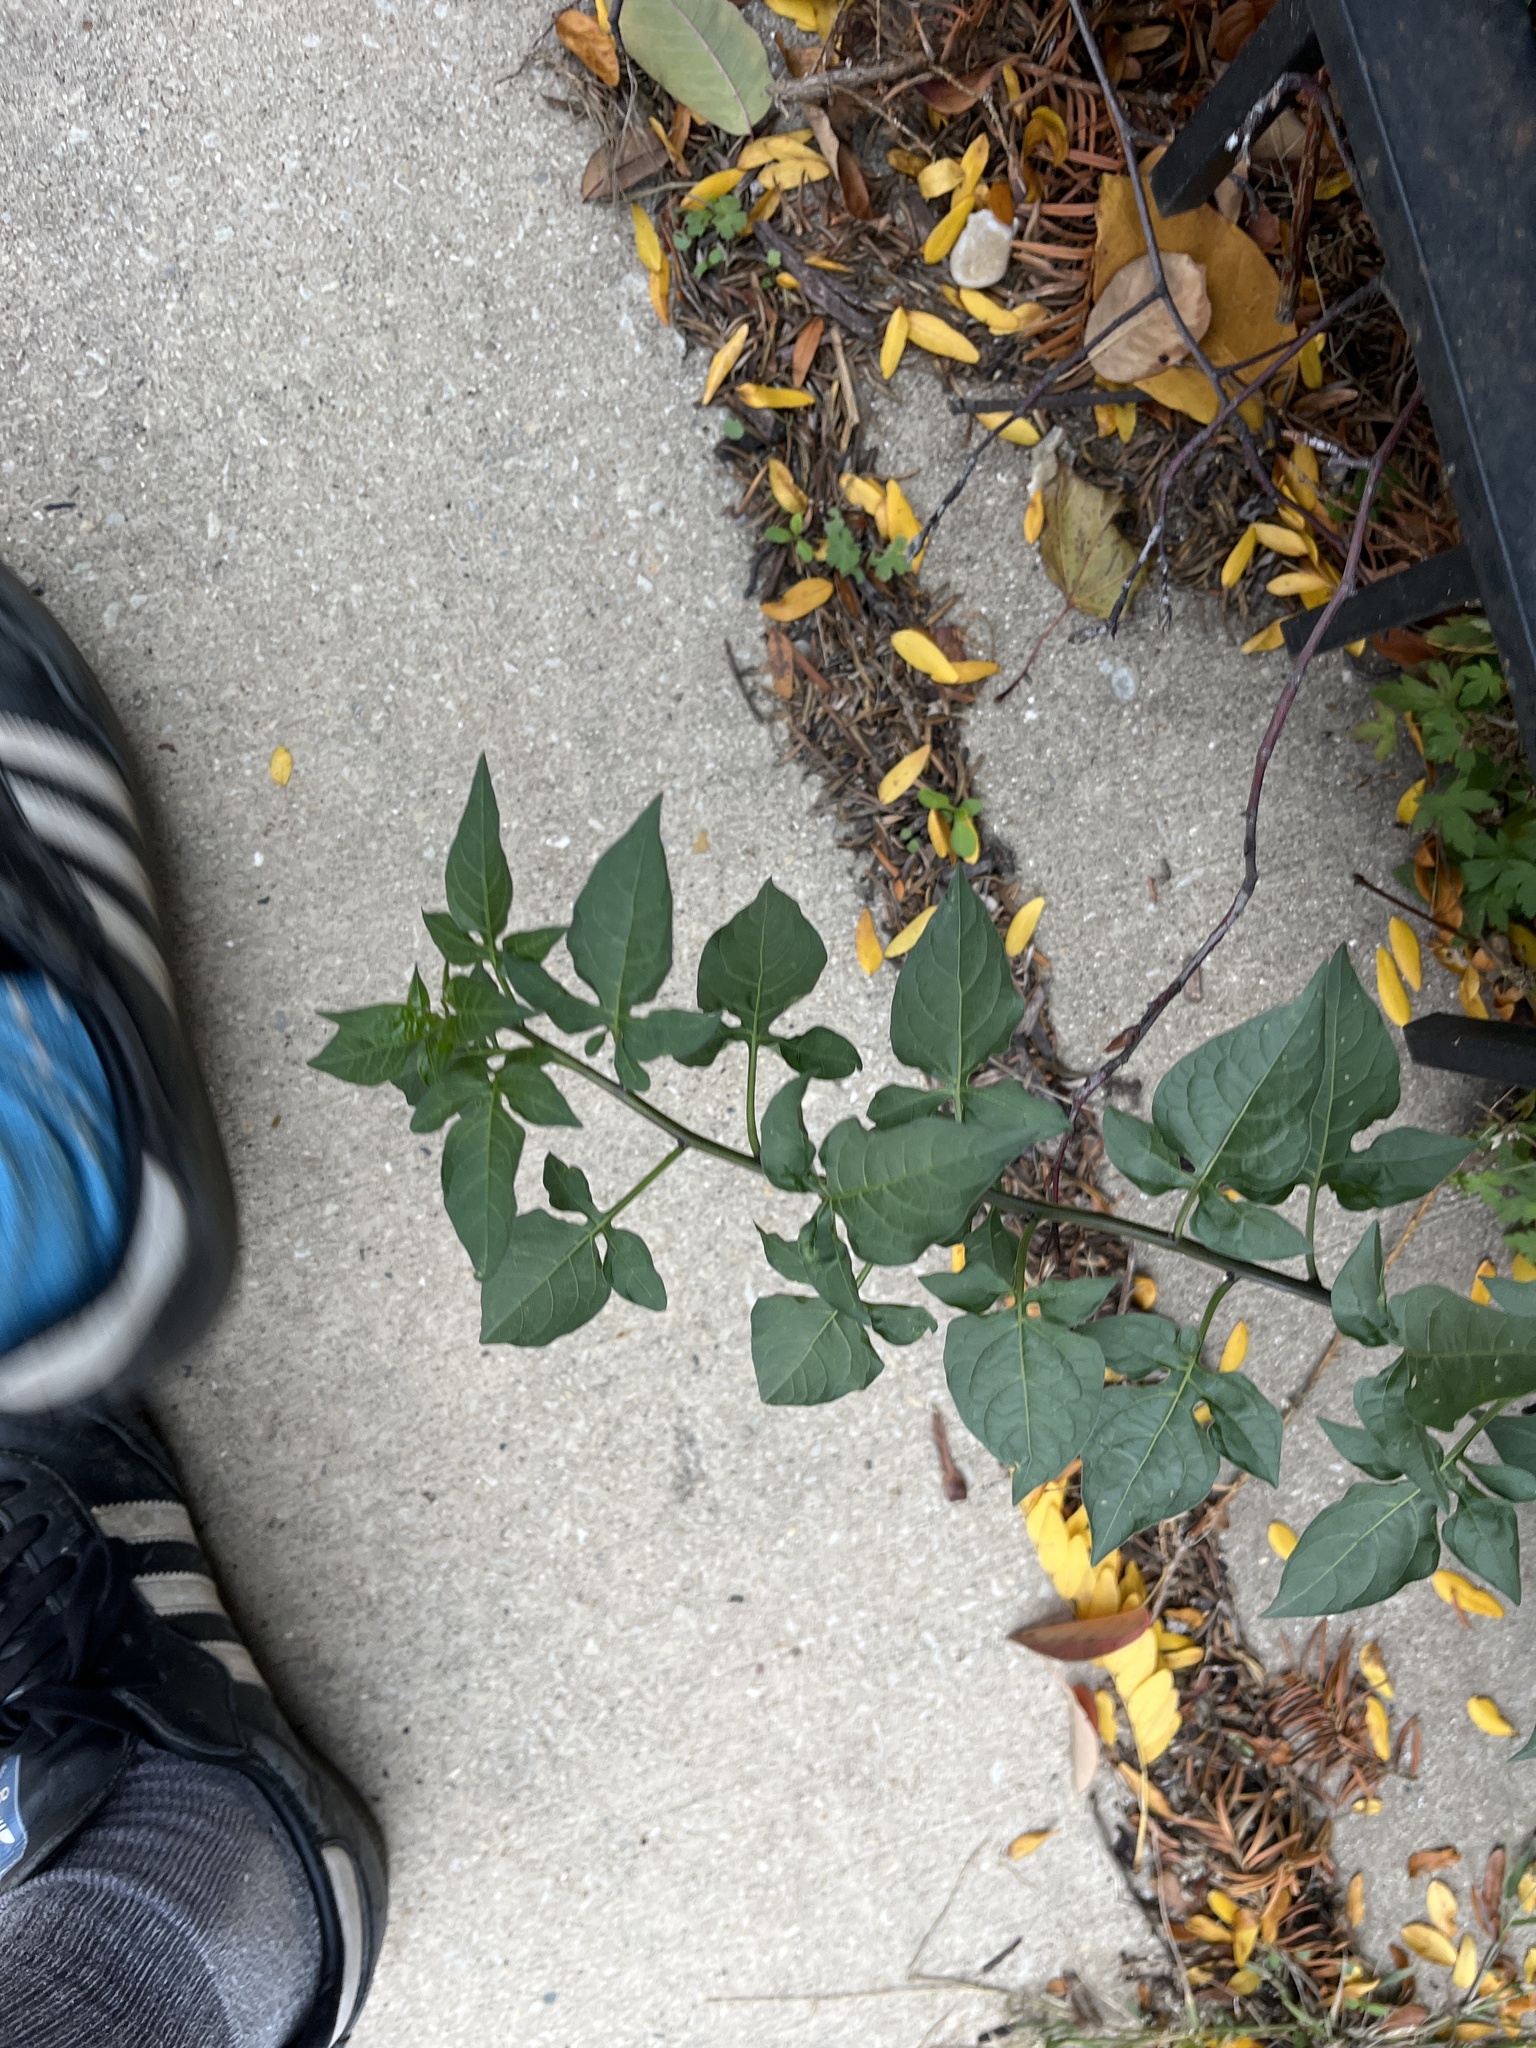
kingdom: Plantae
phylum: Tracheophyta
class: Magnoliopsida
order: Solanales
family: Solanaceae
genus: Solanum
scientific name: Solanum dulcamara
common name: Climbing nightshade
